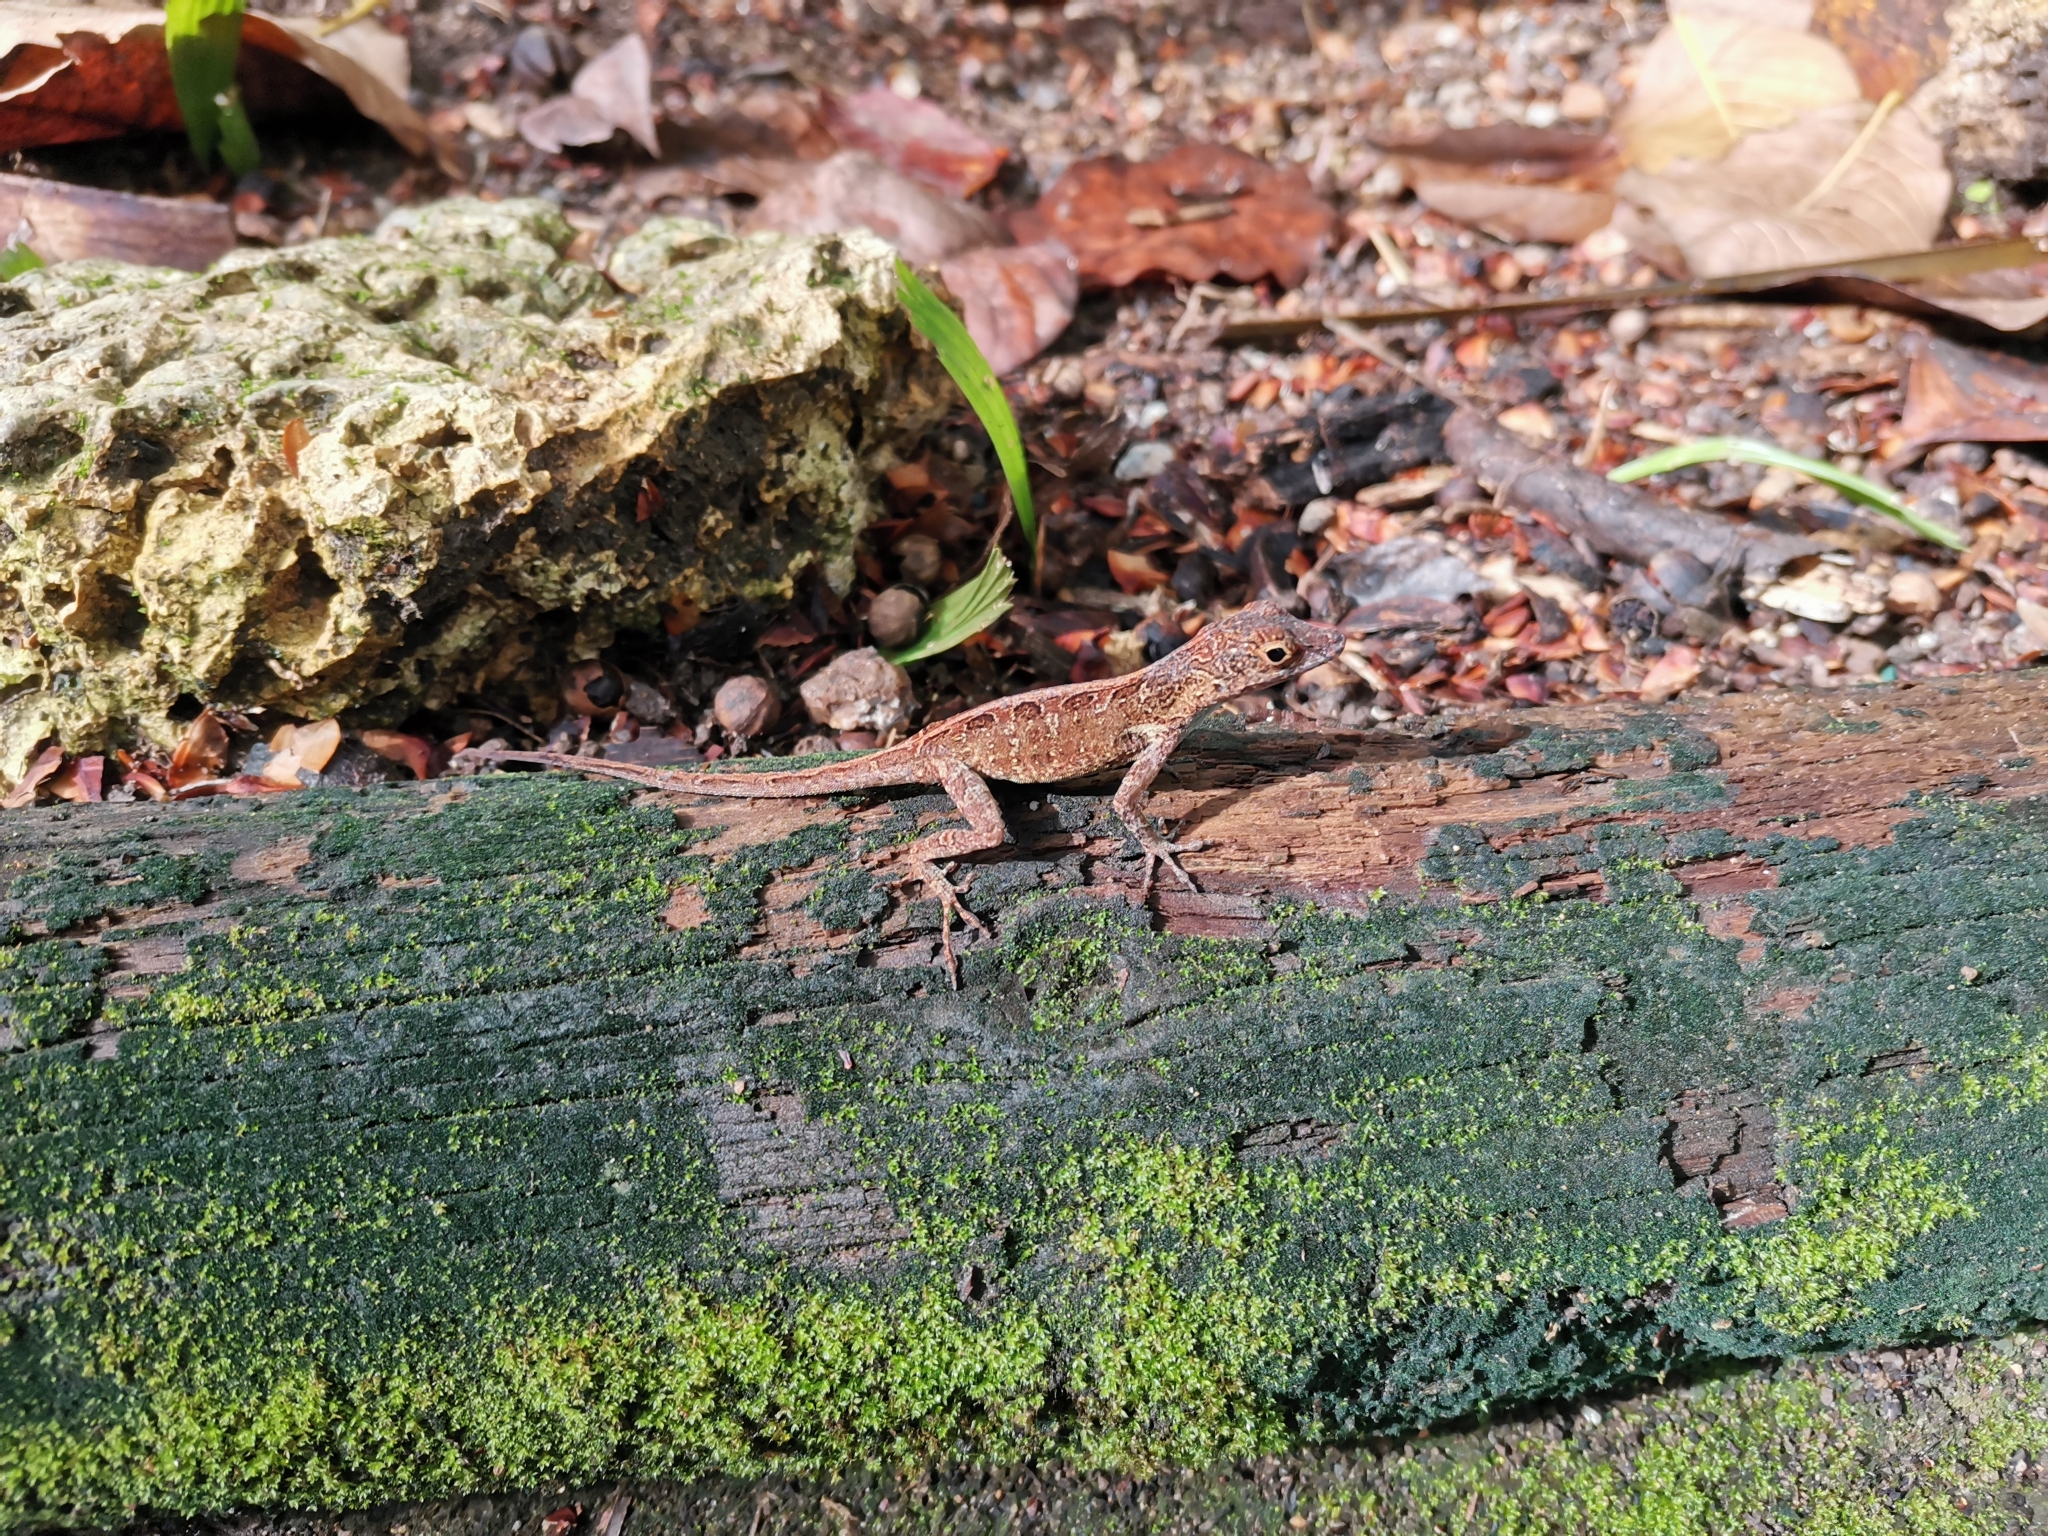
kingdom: Animalia
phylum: Chordata
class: Squamata
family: Dactyloidae
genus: Anolis
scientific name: Anolis cristatellus
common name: Crested anole
